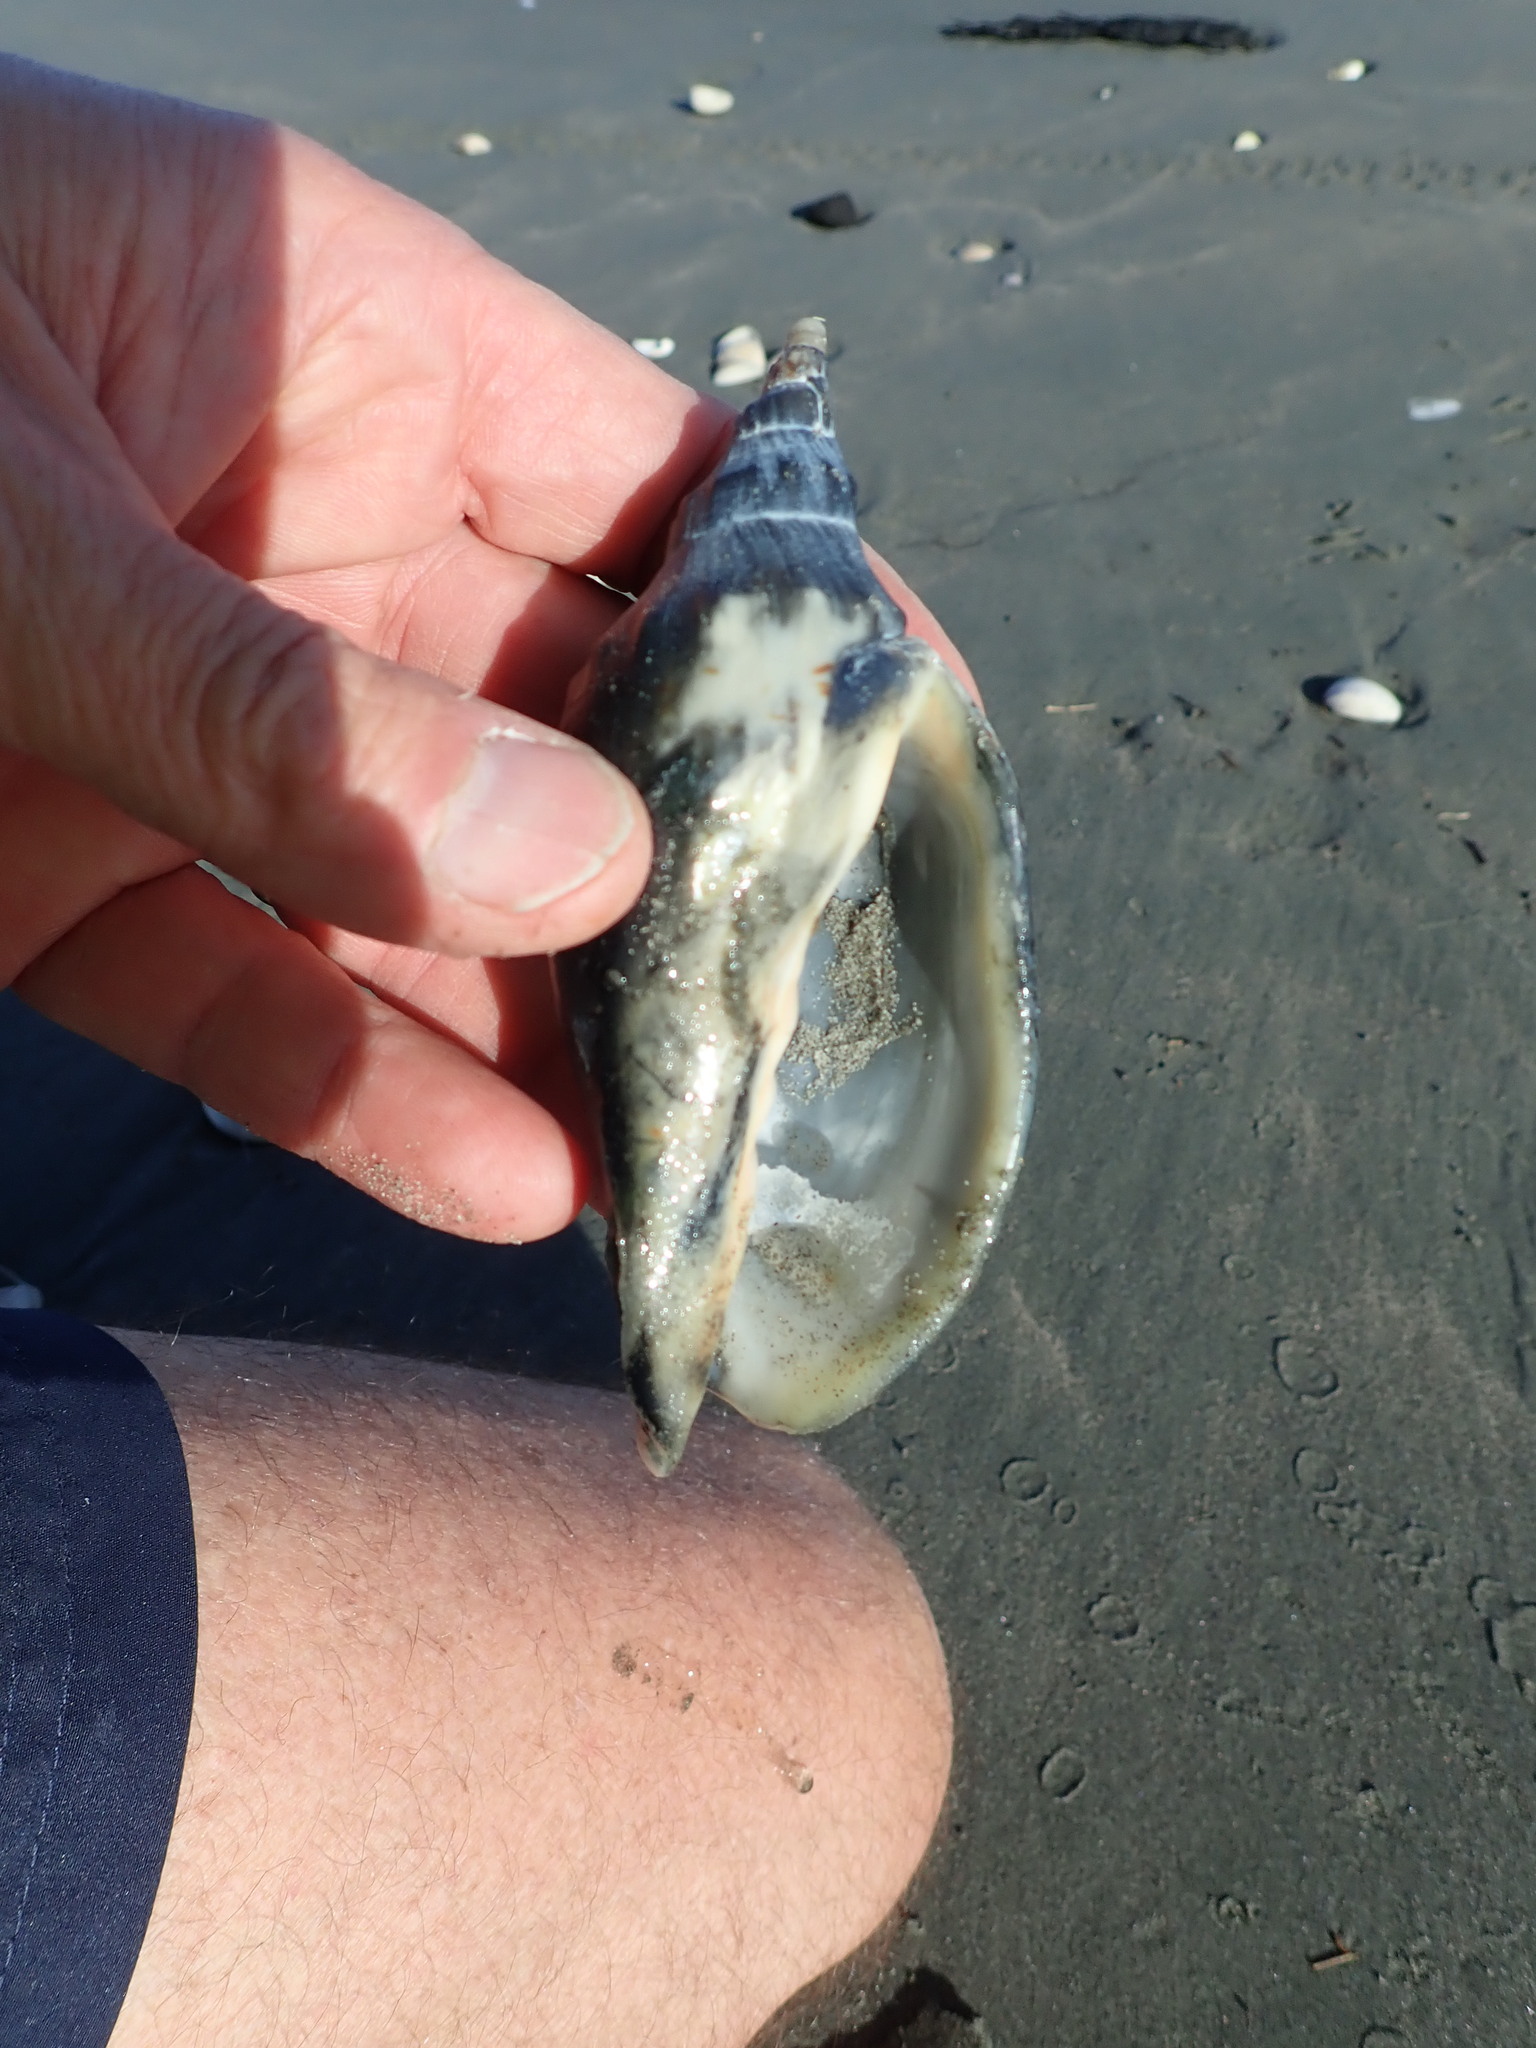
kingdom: Animalia
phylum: Mollusca
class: Gastropoda
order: Neogastropoda
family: Volutidae
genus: Alcithoe
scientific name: Alcithoe arabica
